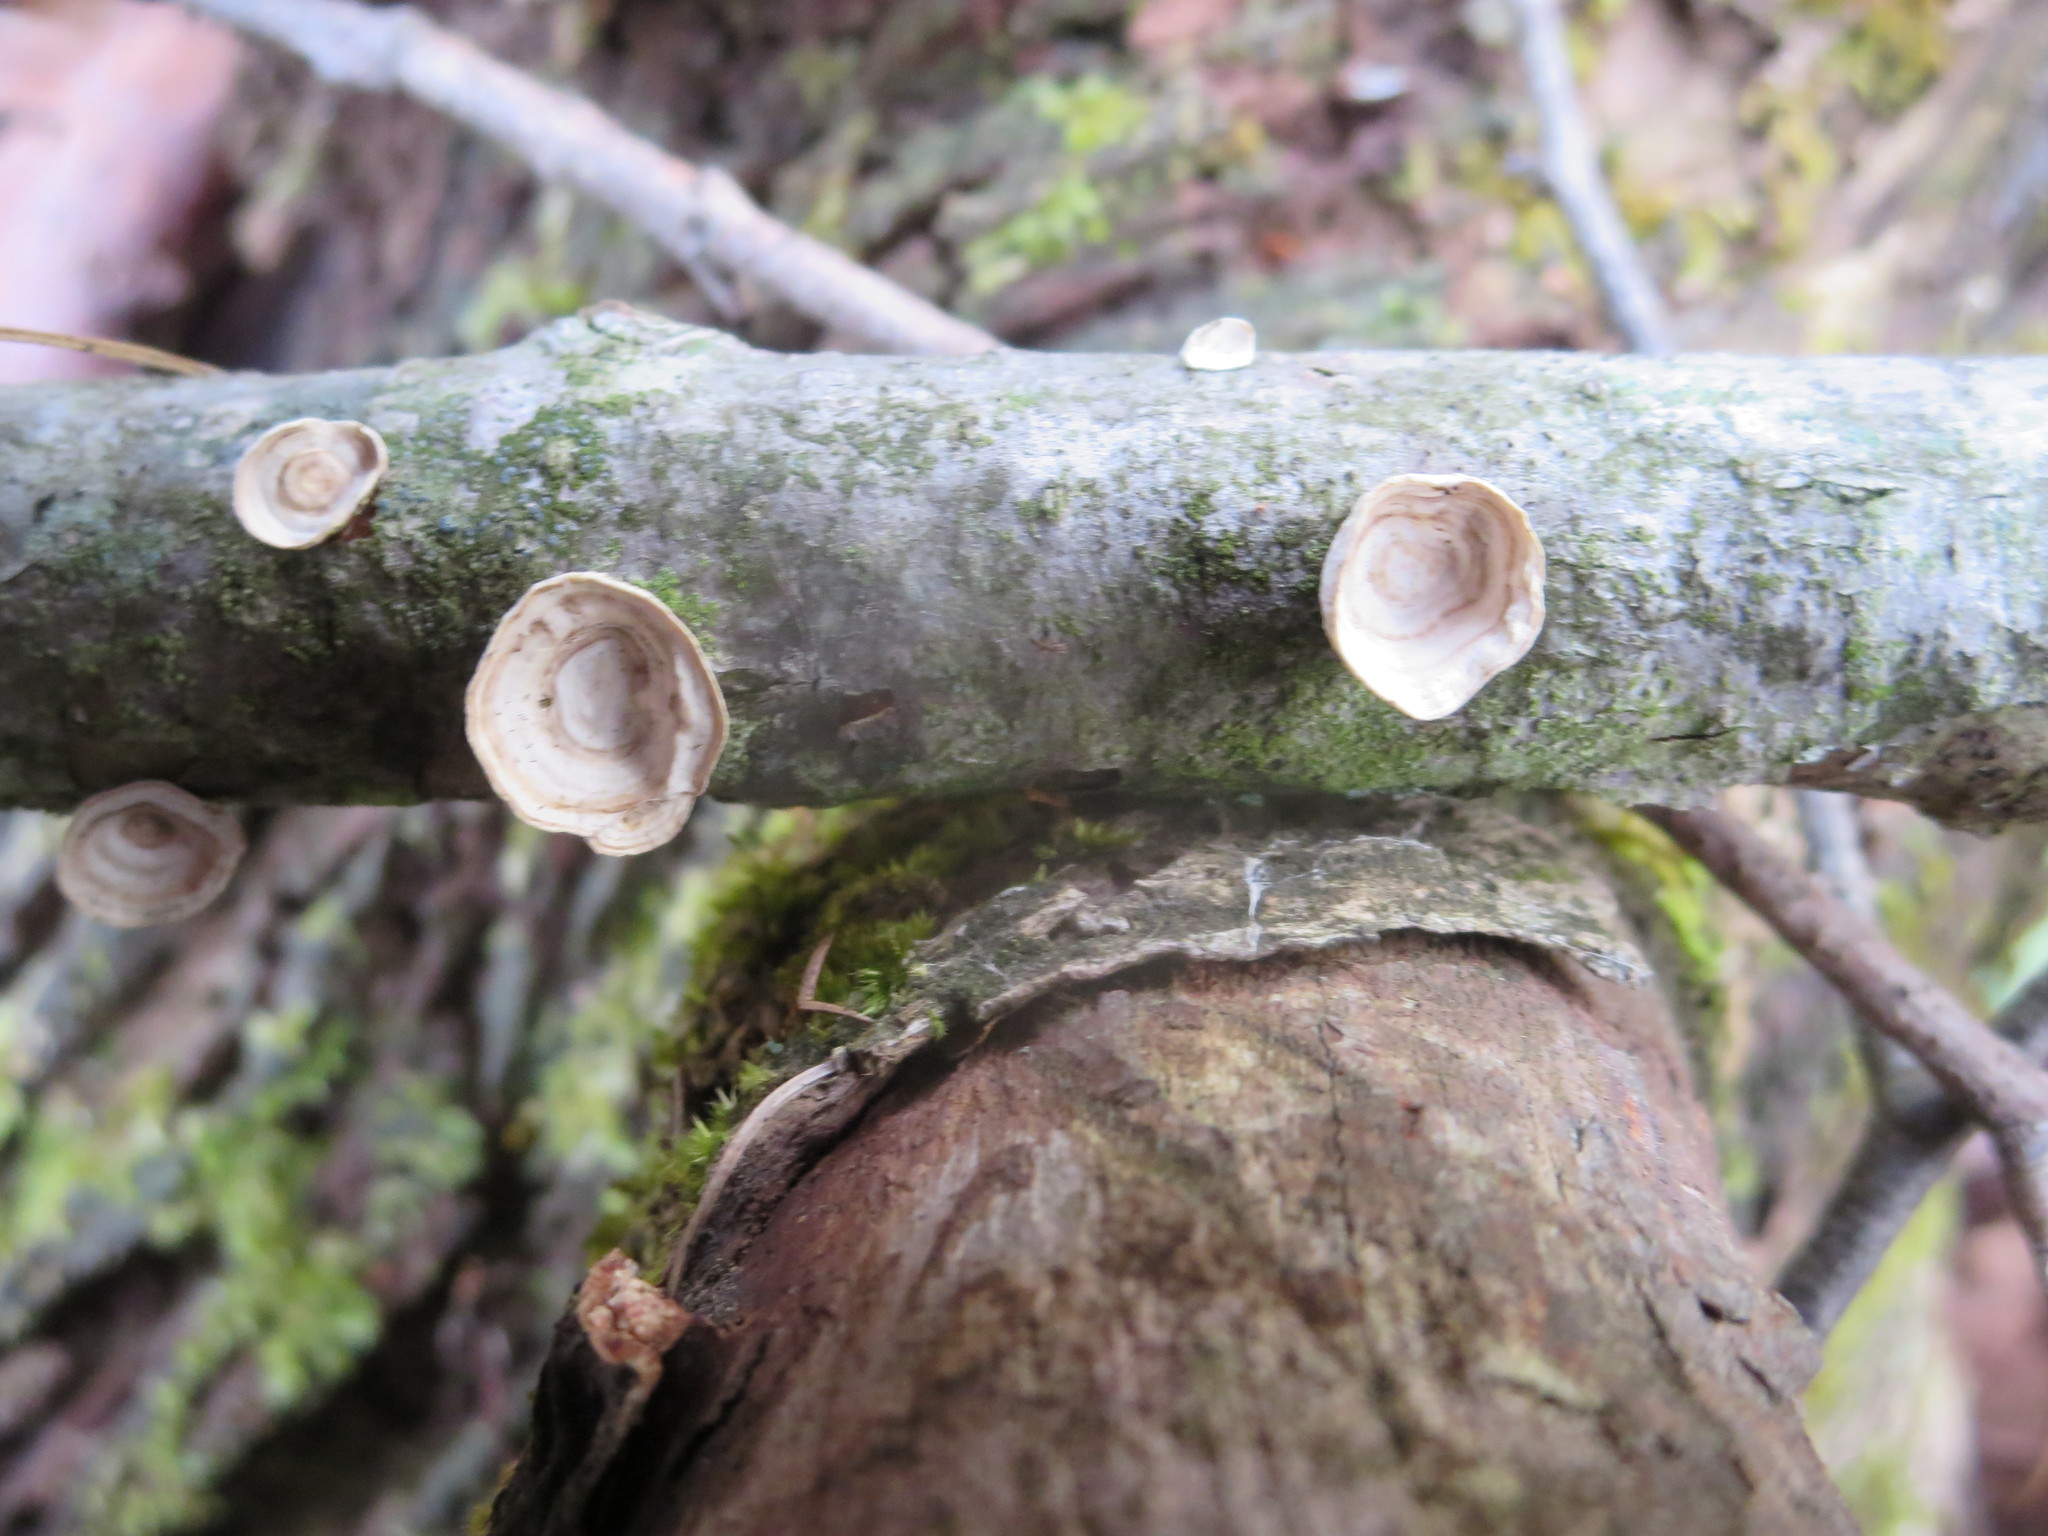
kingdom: Fungi
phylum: Basidiomycota
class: Agaricomycetes
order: Polyporales
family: Polyporaceae
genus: Poronidulus
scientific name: Poronidulus conchifer
